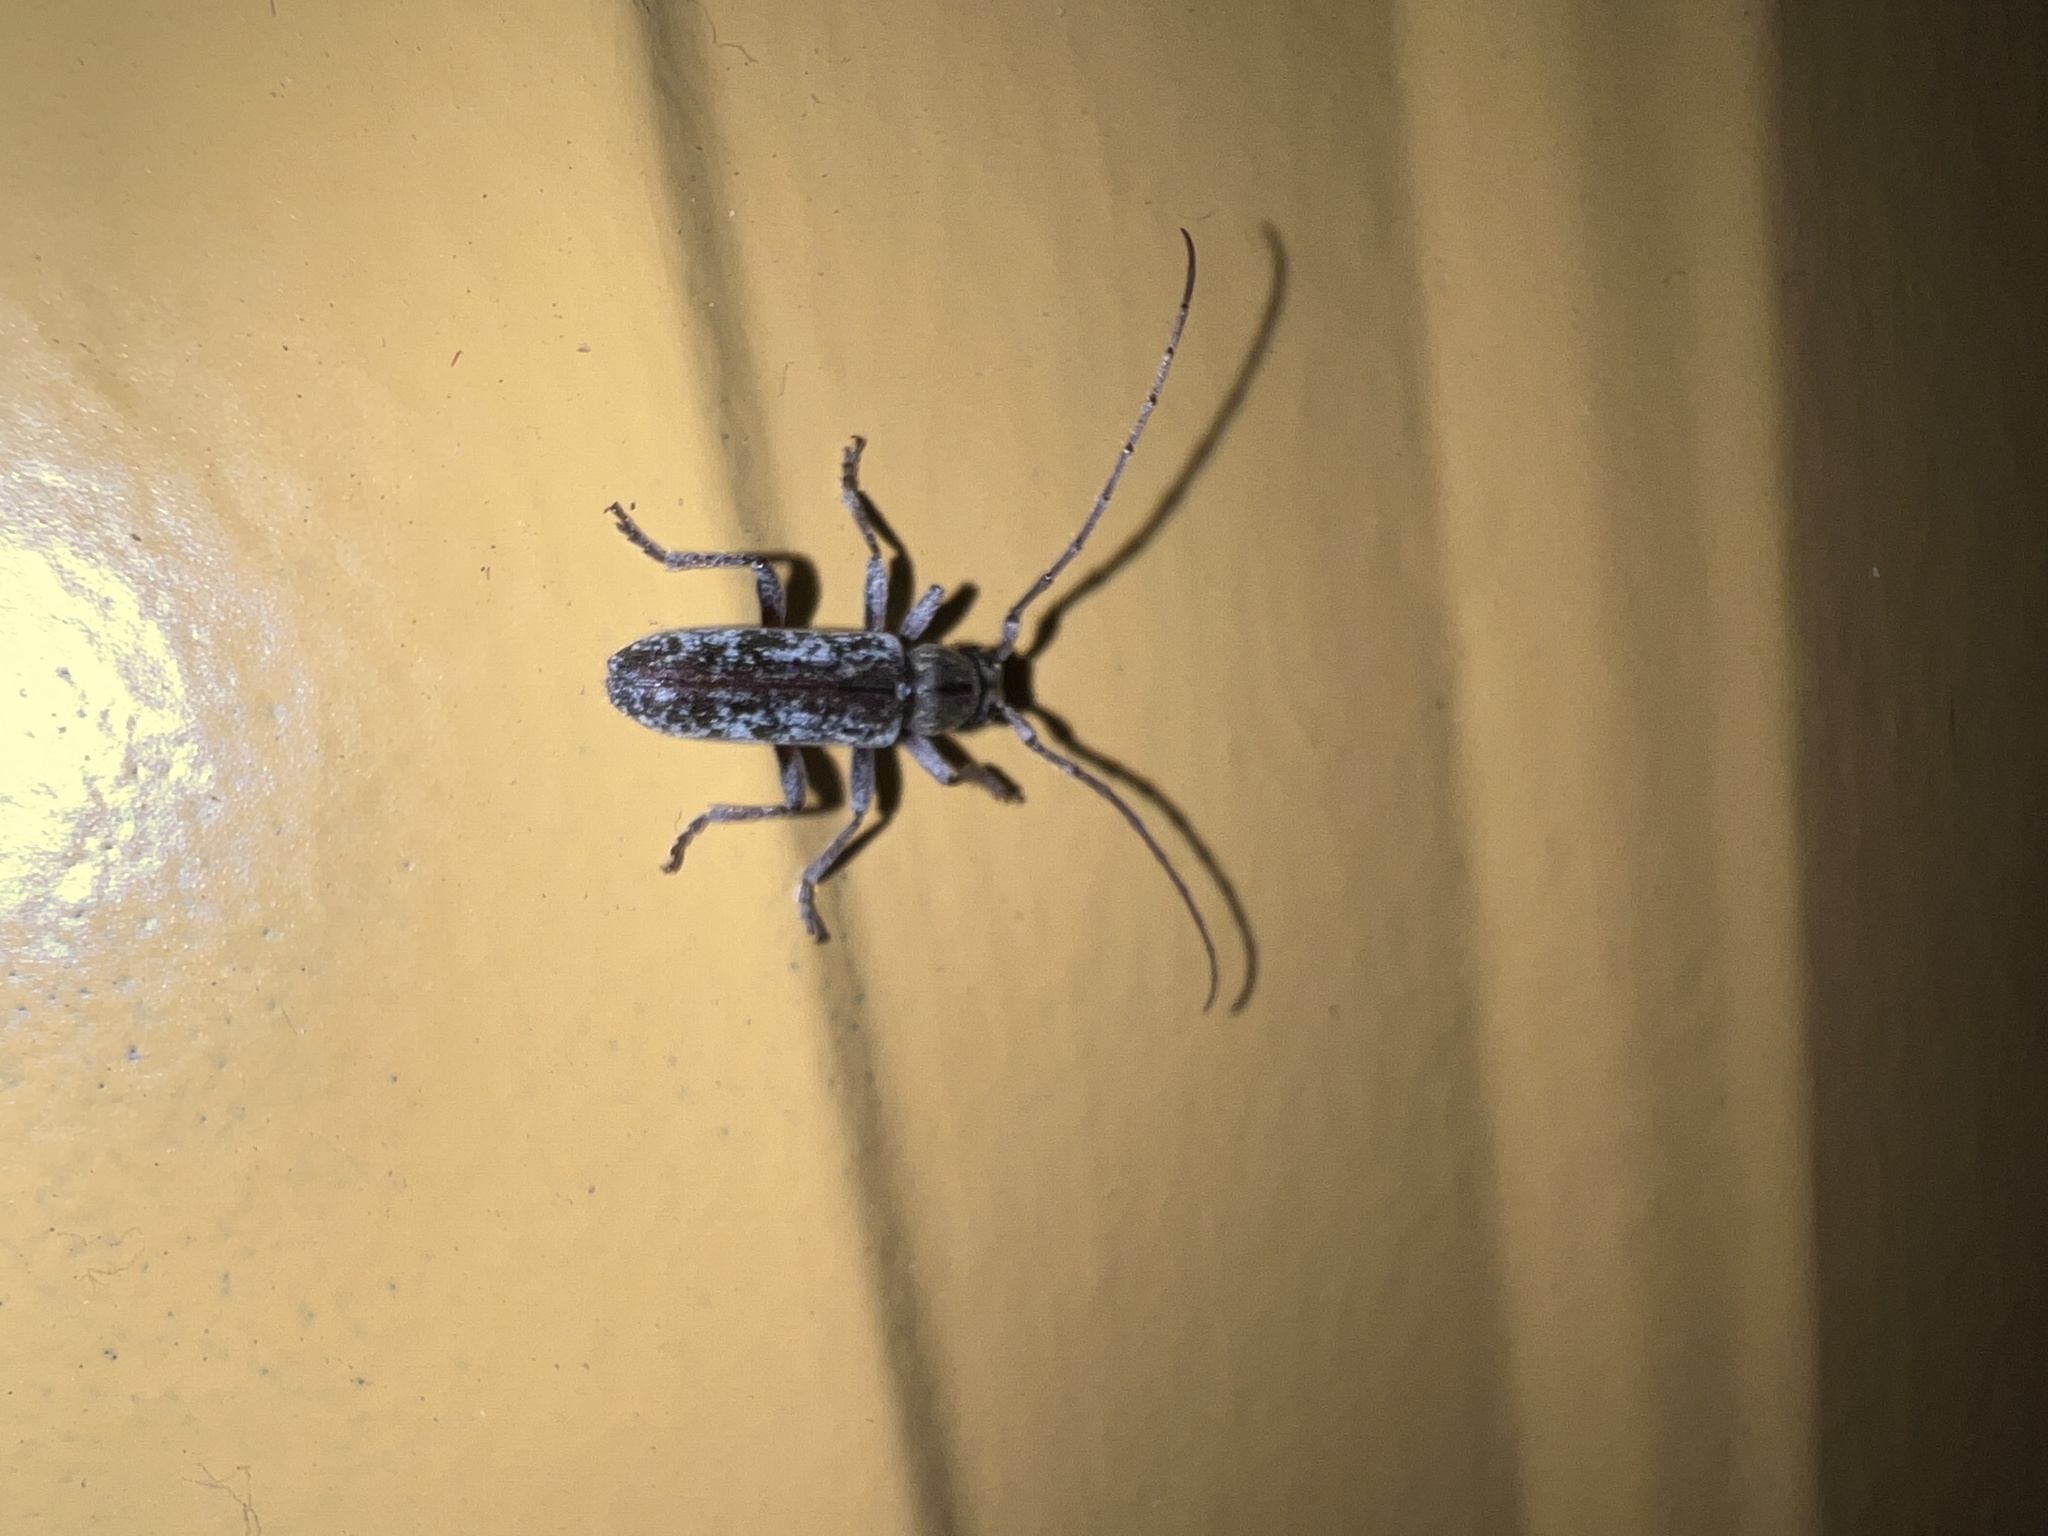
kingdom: Animalia
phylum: Arthropoda
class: Insecta
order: Coleoptera
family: Cerambycidae
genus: Anelaphus
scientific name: Anelaphus debilis
